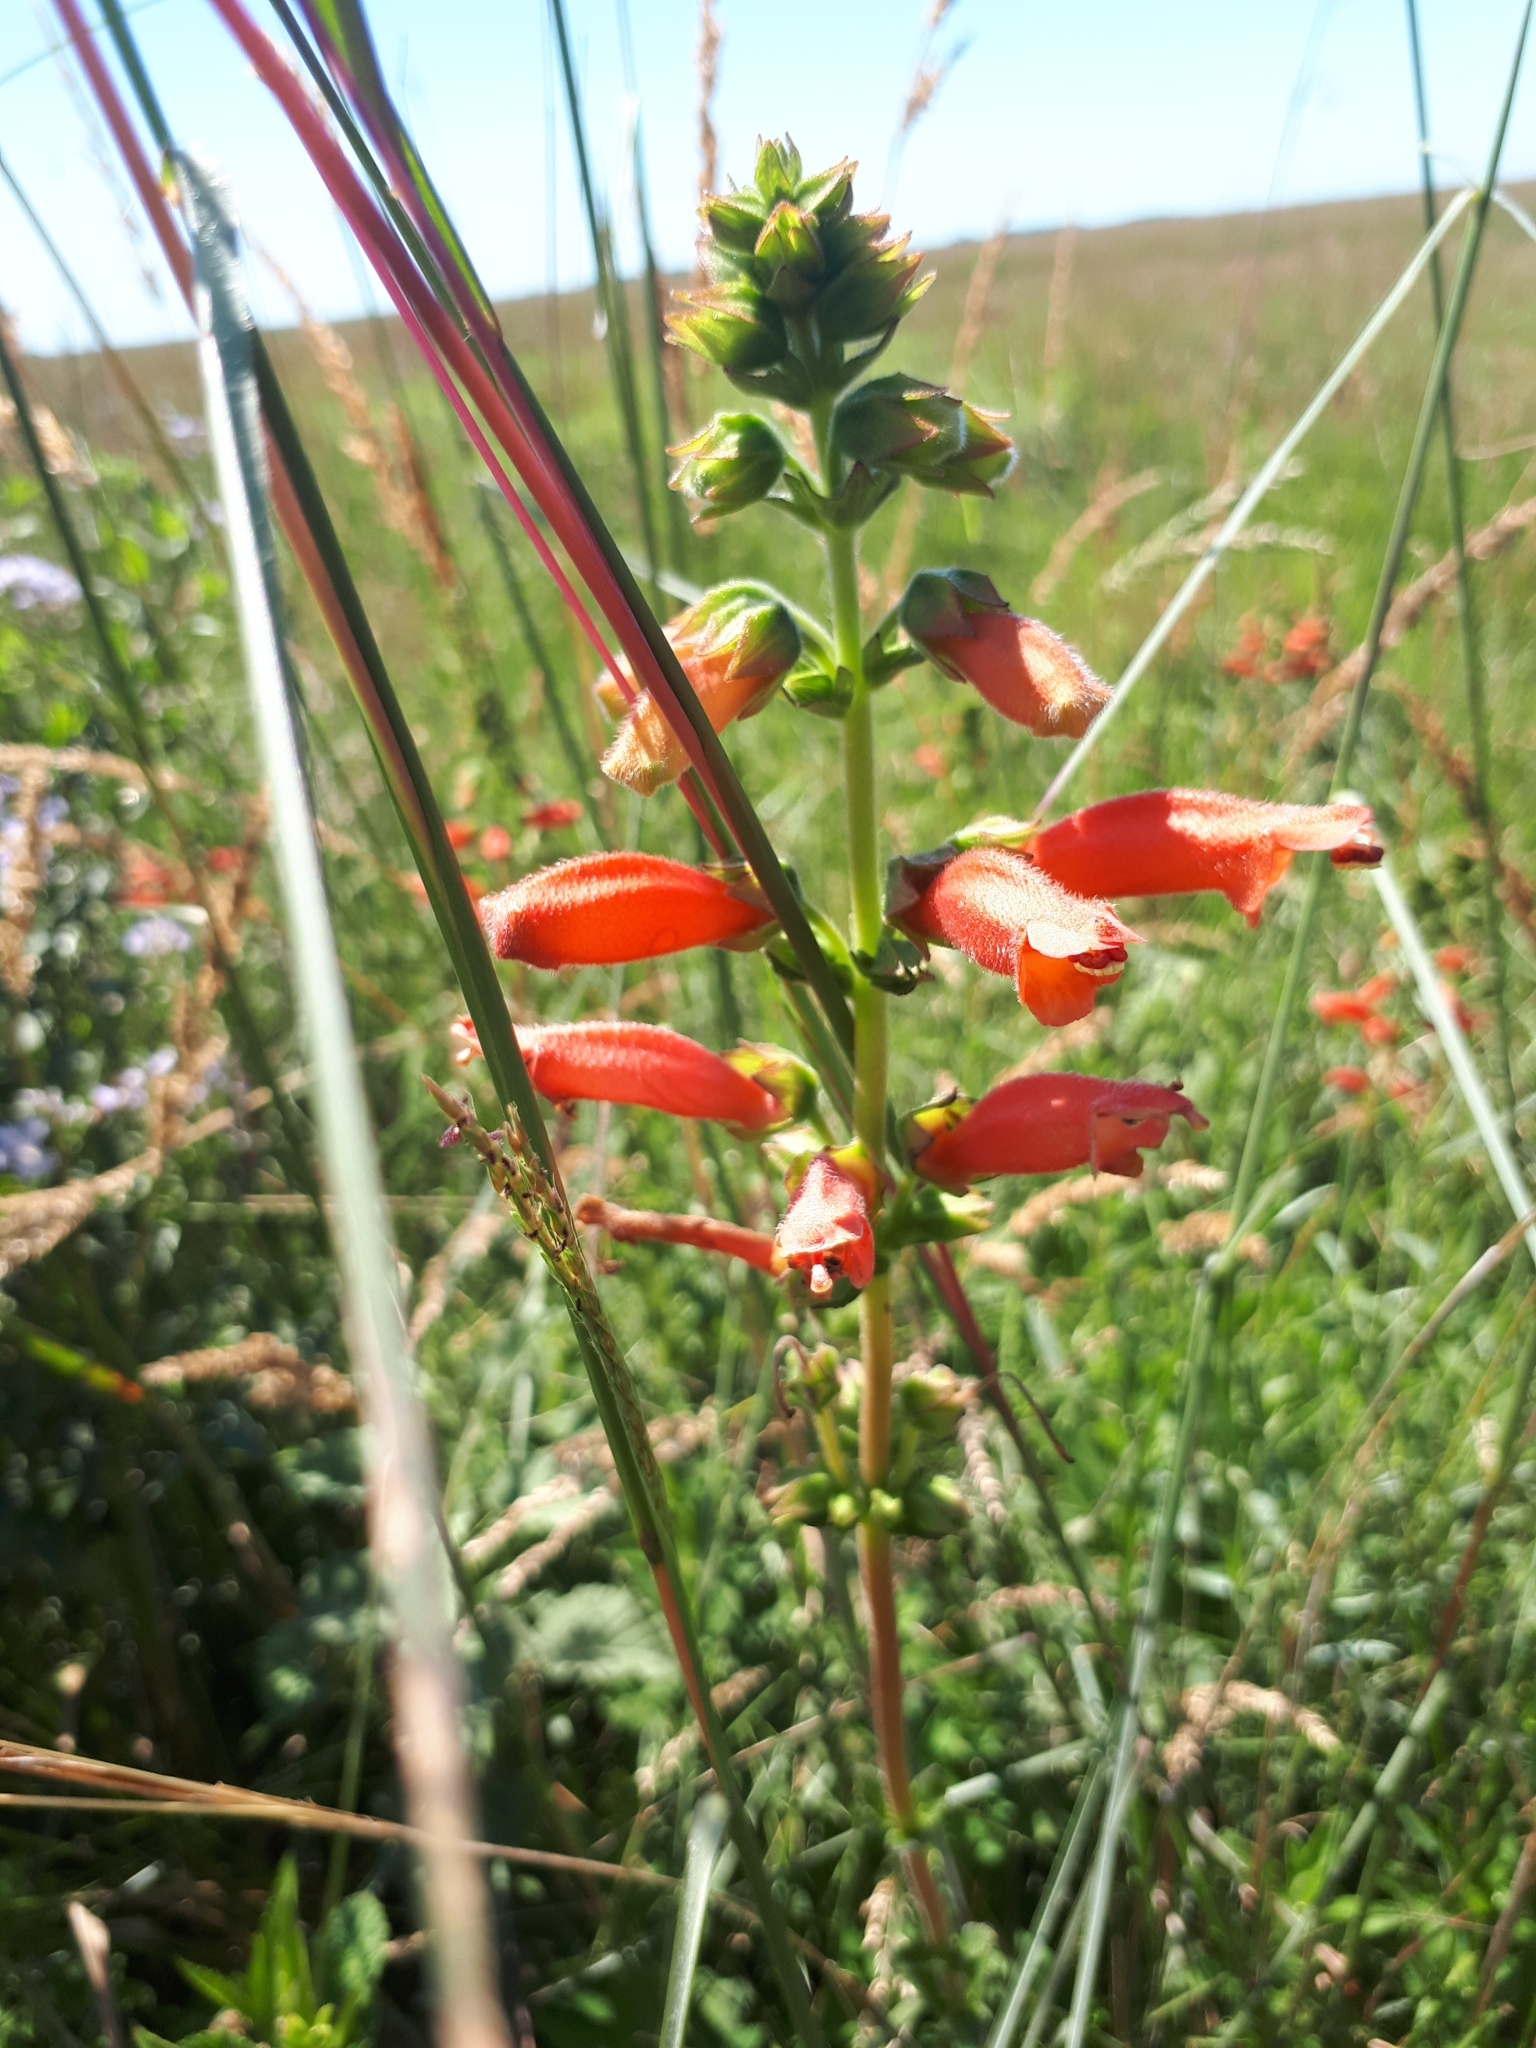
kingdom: Plantae
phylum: Tracheophyta
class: Magnoliopsida
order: Lamiales
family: Gesneriaceae
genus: Sinningia
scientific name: Sinningia elatior
